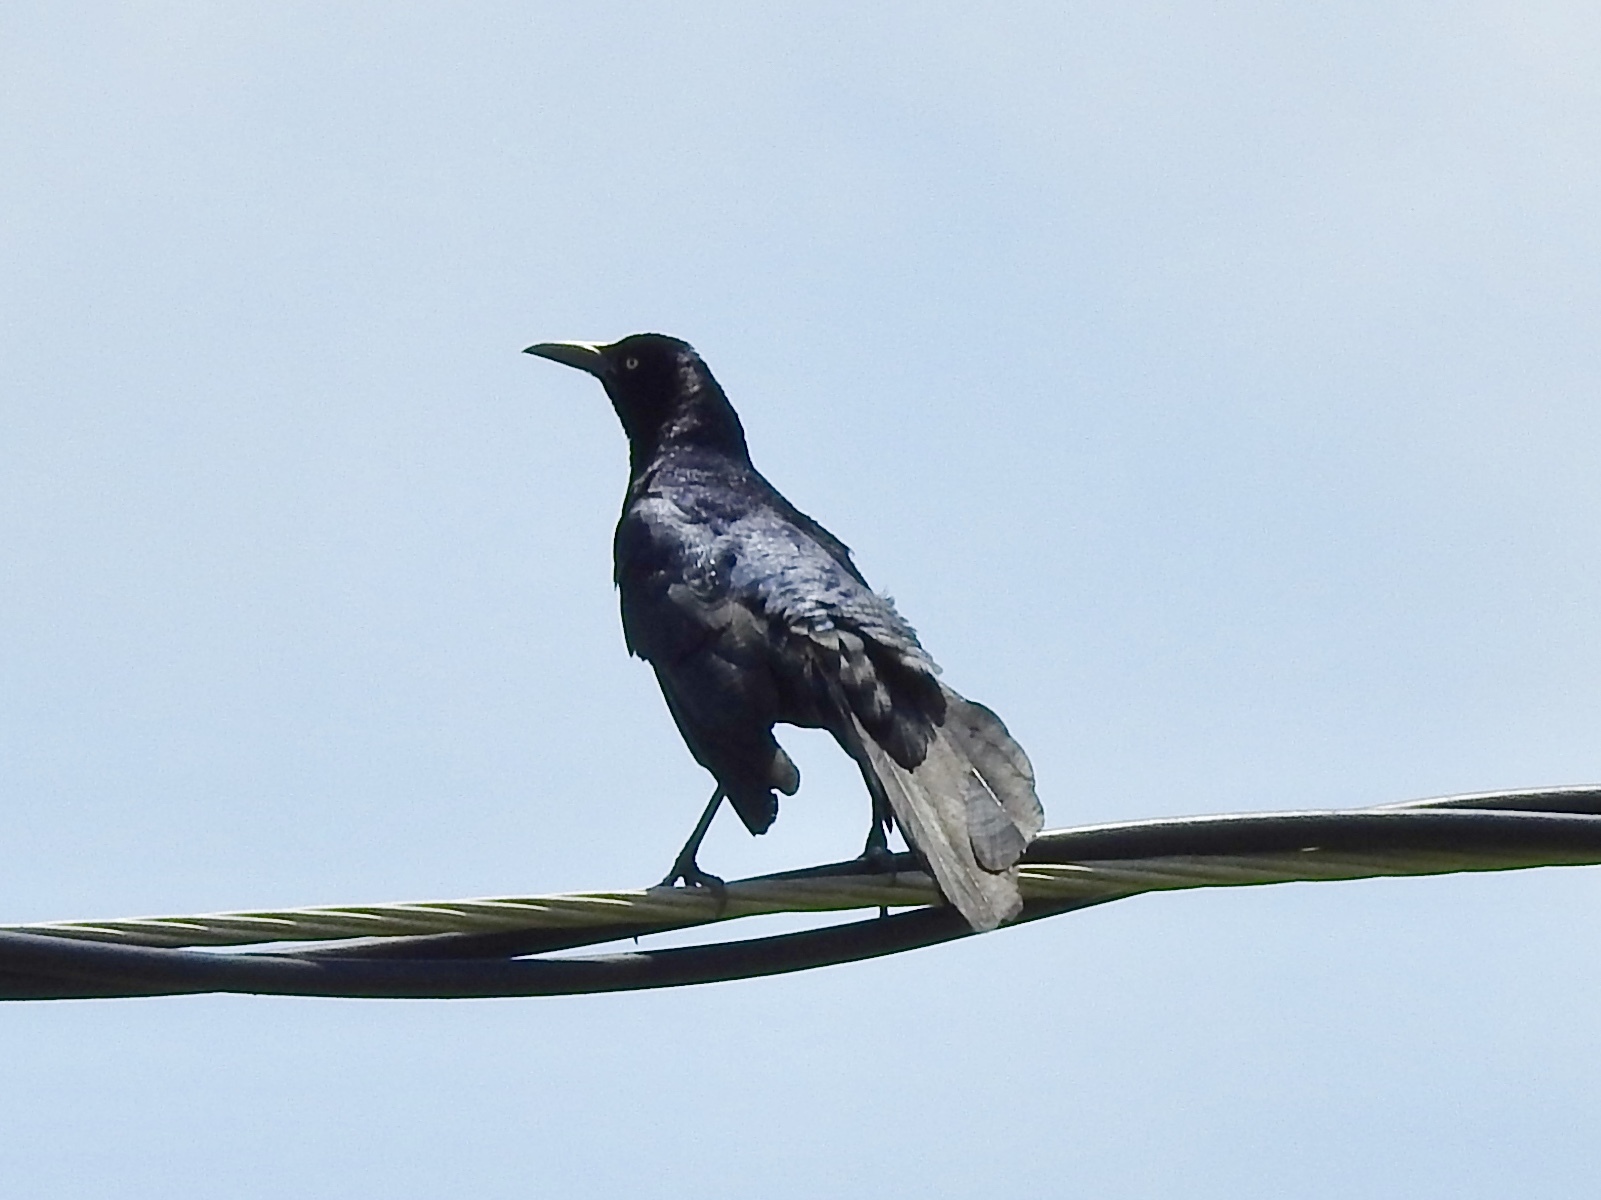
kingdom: Animalia
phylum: Chordata
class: Aves
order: Passeriformes
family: Icteridae
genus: Quiscalus
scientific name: Quiscalus mexicanus
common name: Great-tailed grackle
